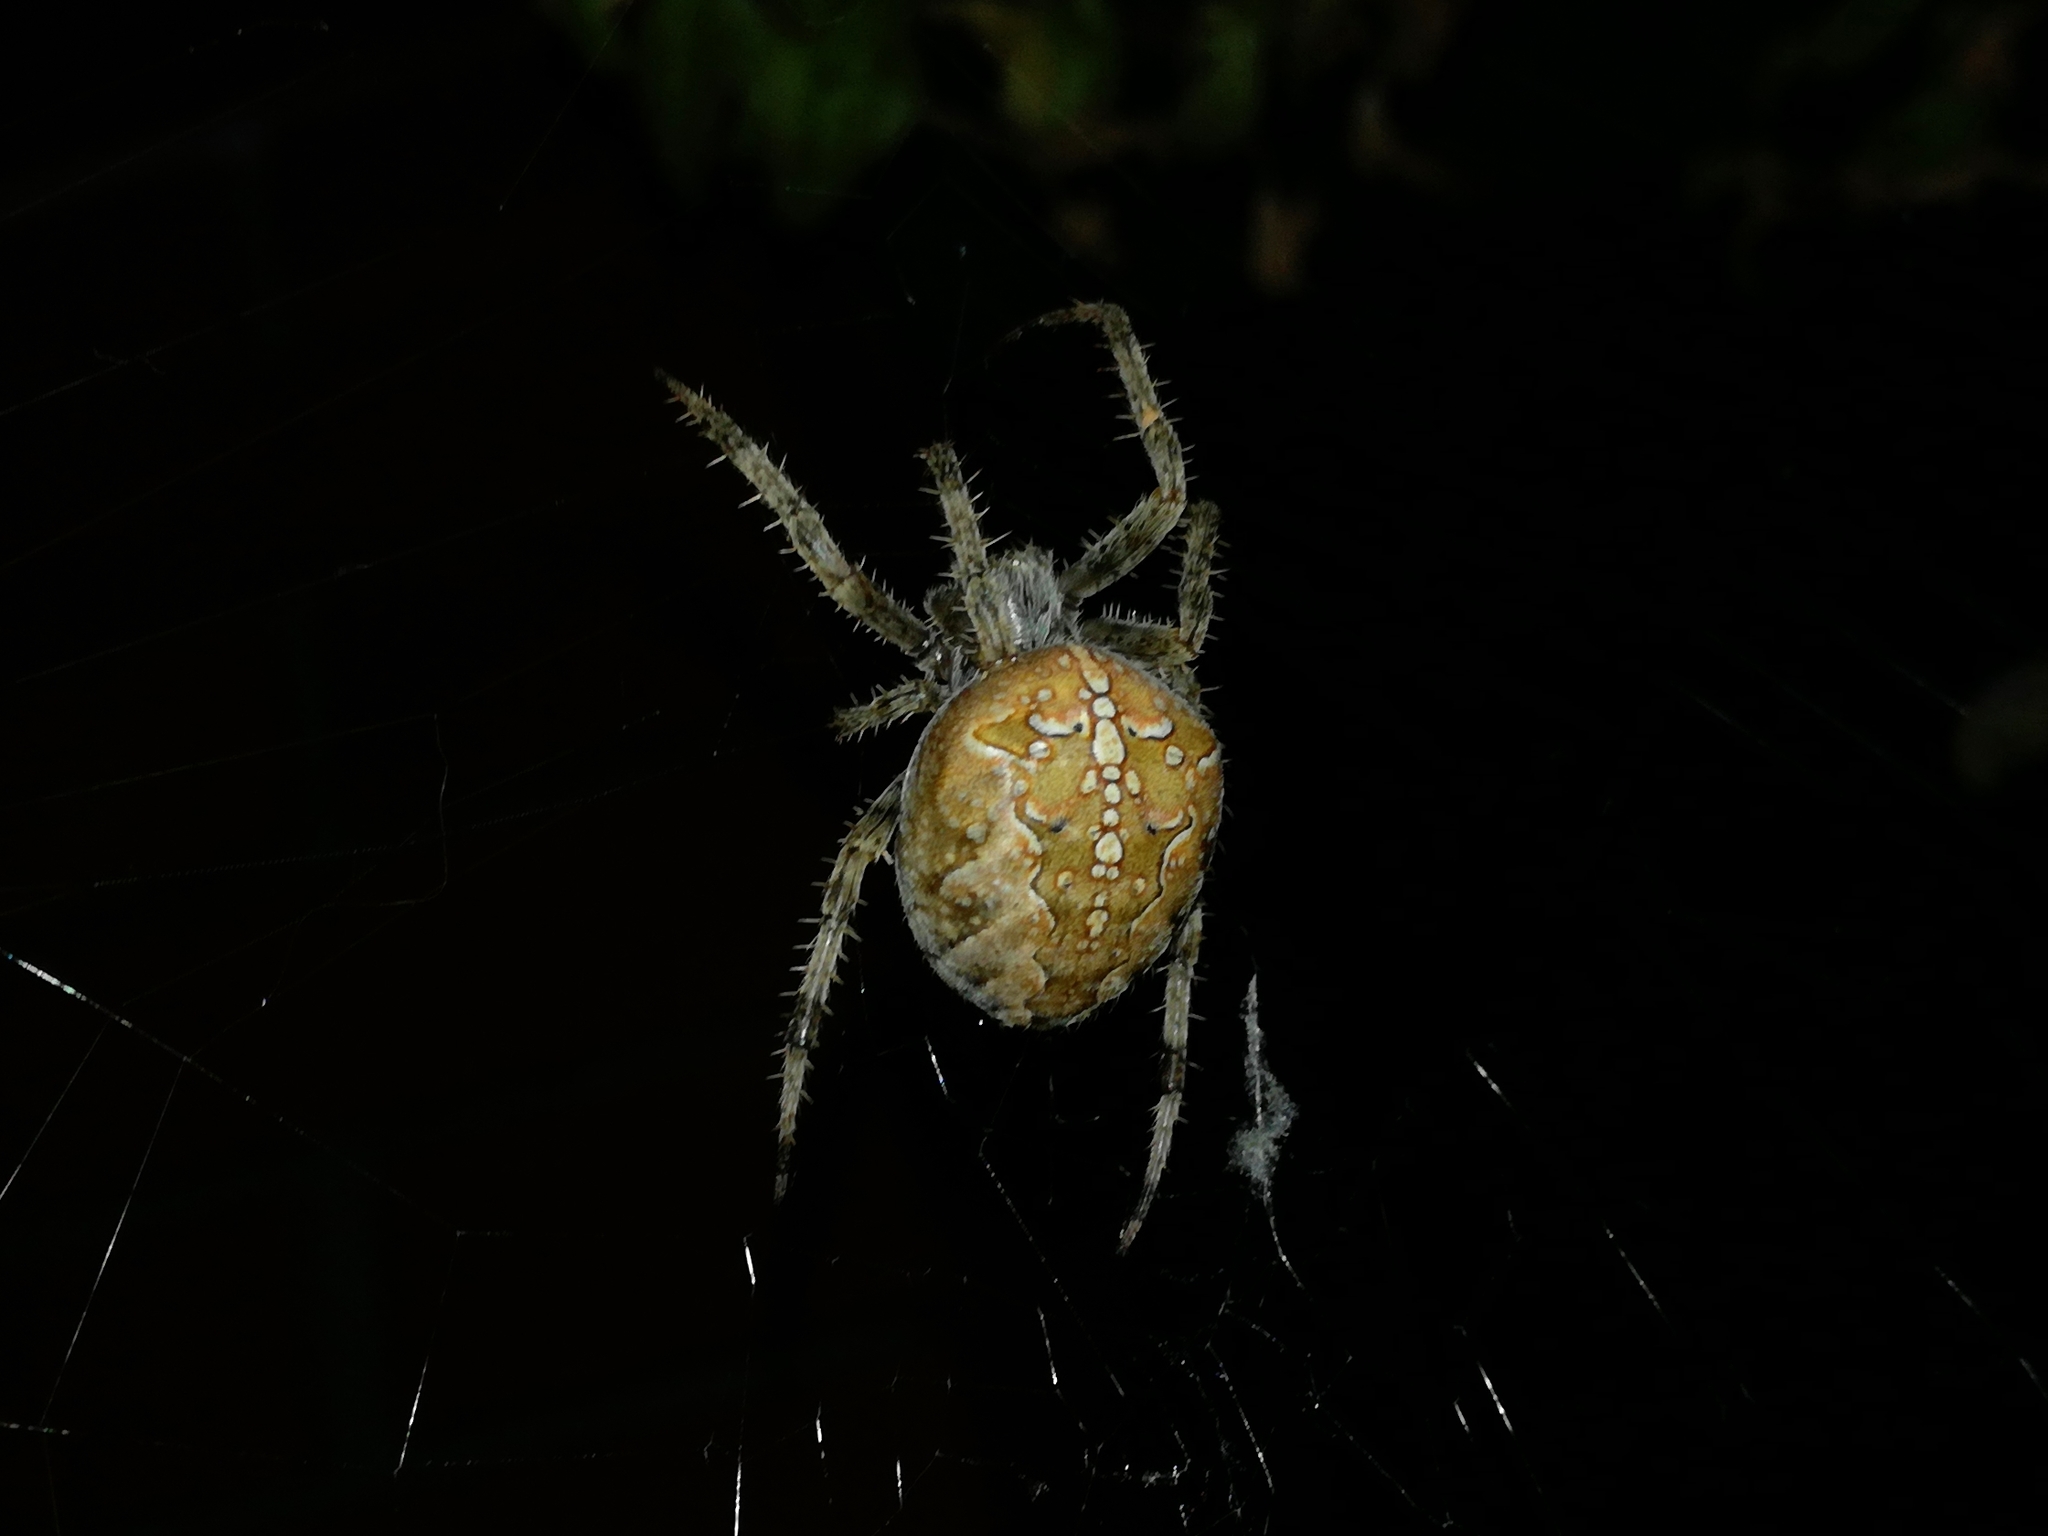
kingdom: Animalia
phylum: Arthropoda
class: Arachnida
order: Araneae
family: Araneidae
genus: Araneus
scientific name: Araneus diadematus
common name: Cross orbweaver
